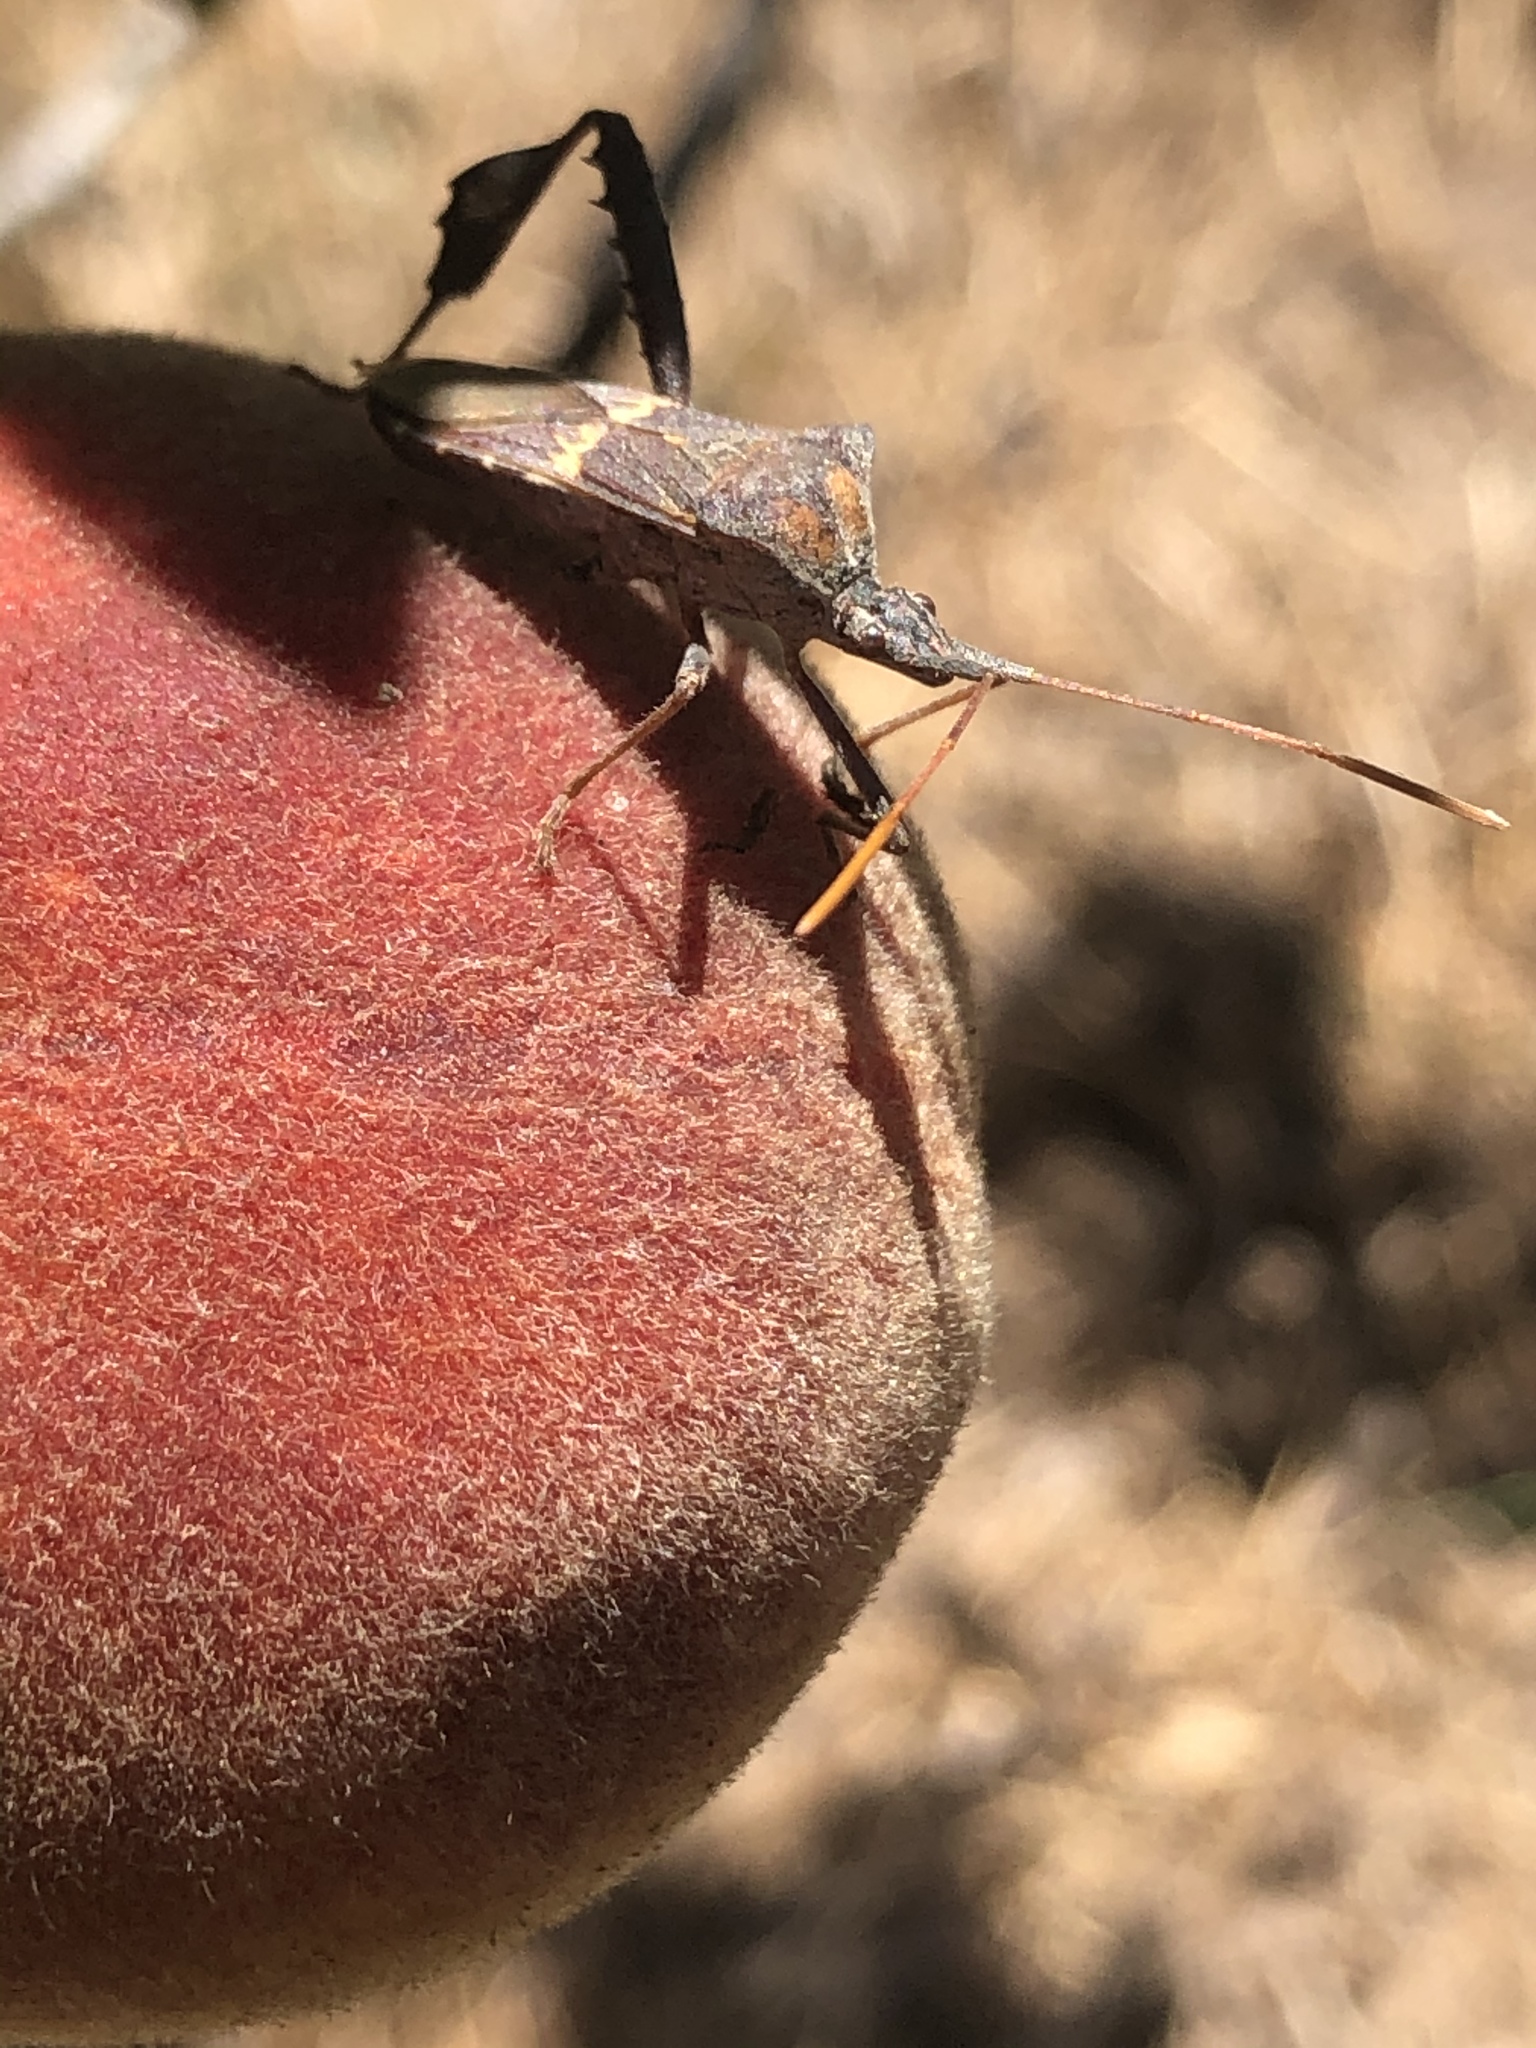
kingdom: Animalia
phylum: Arthropoda
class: Insecta
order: Hemiptera
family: Coreidae
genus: Leptoglossus
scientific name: Leptoglossus zonatus
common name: Large-legged bug
